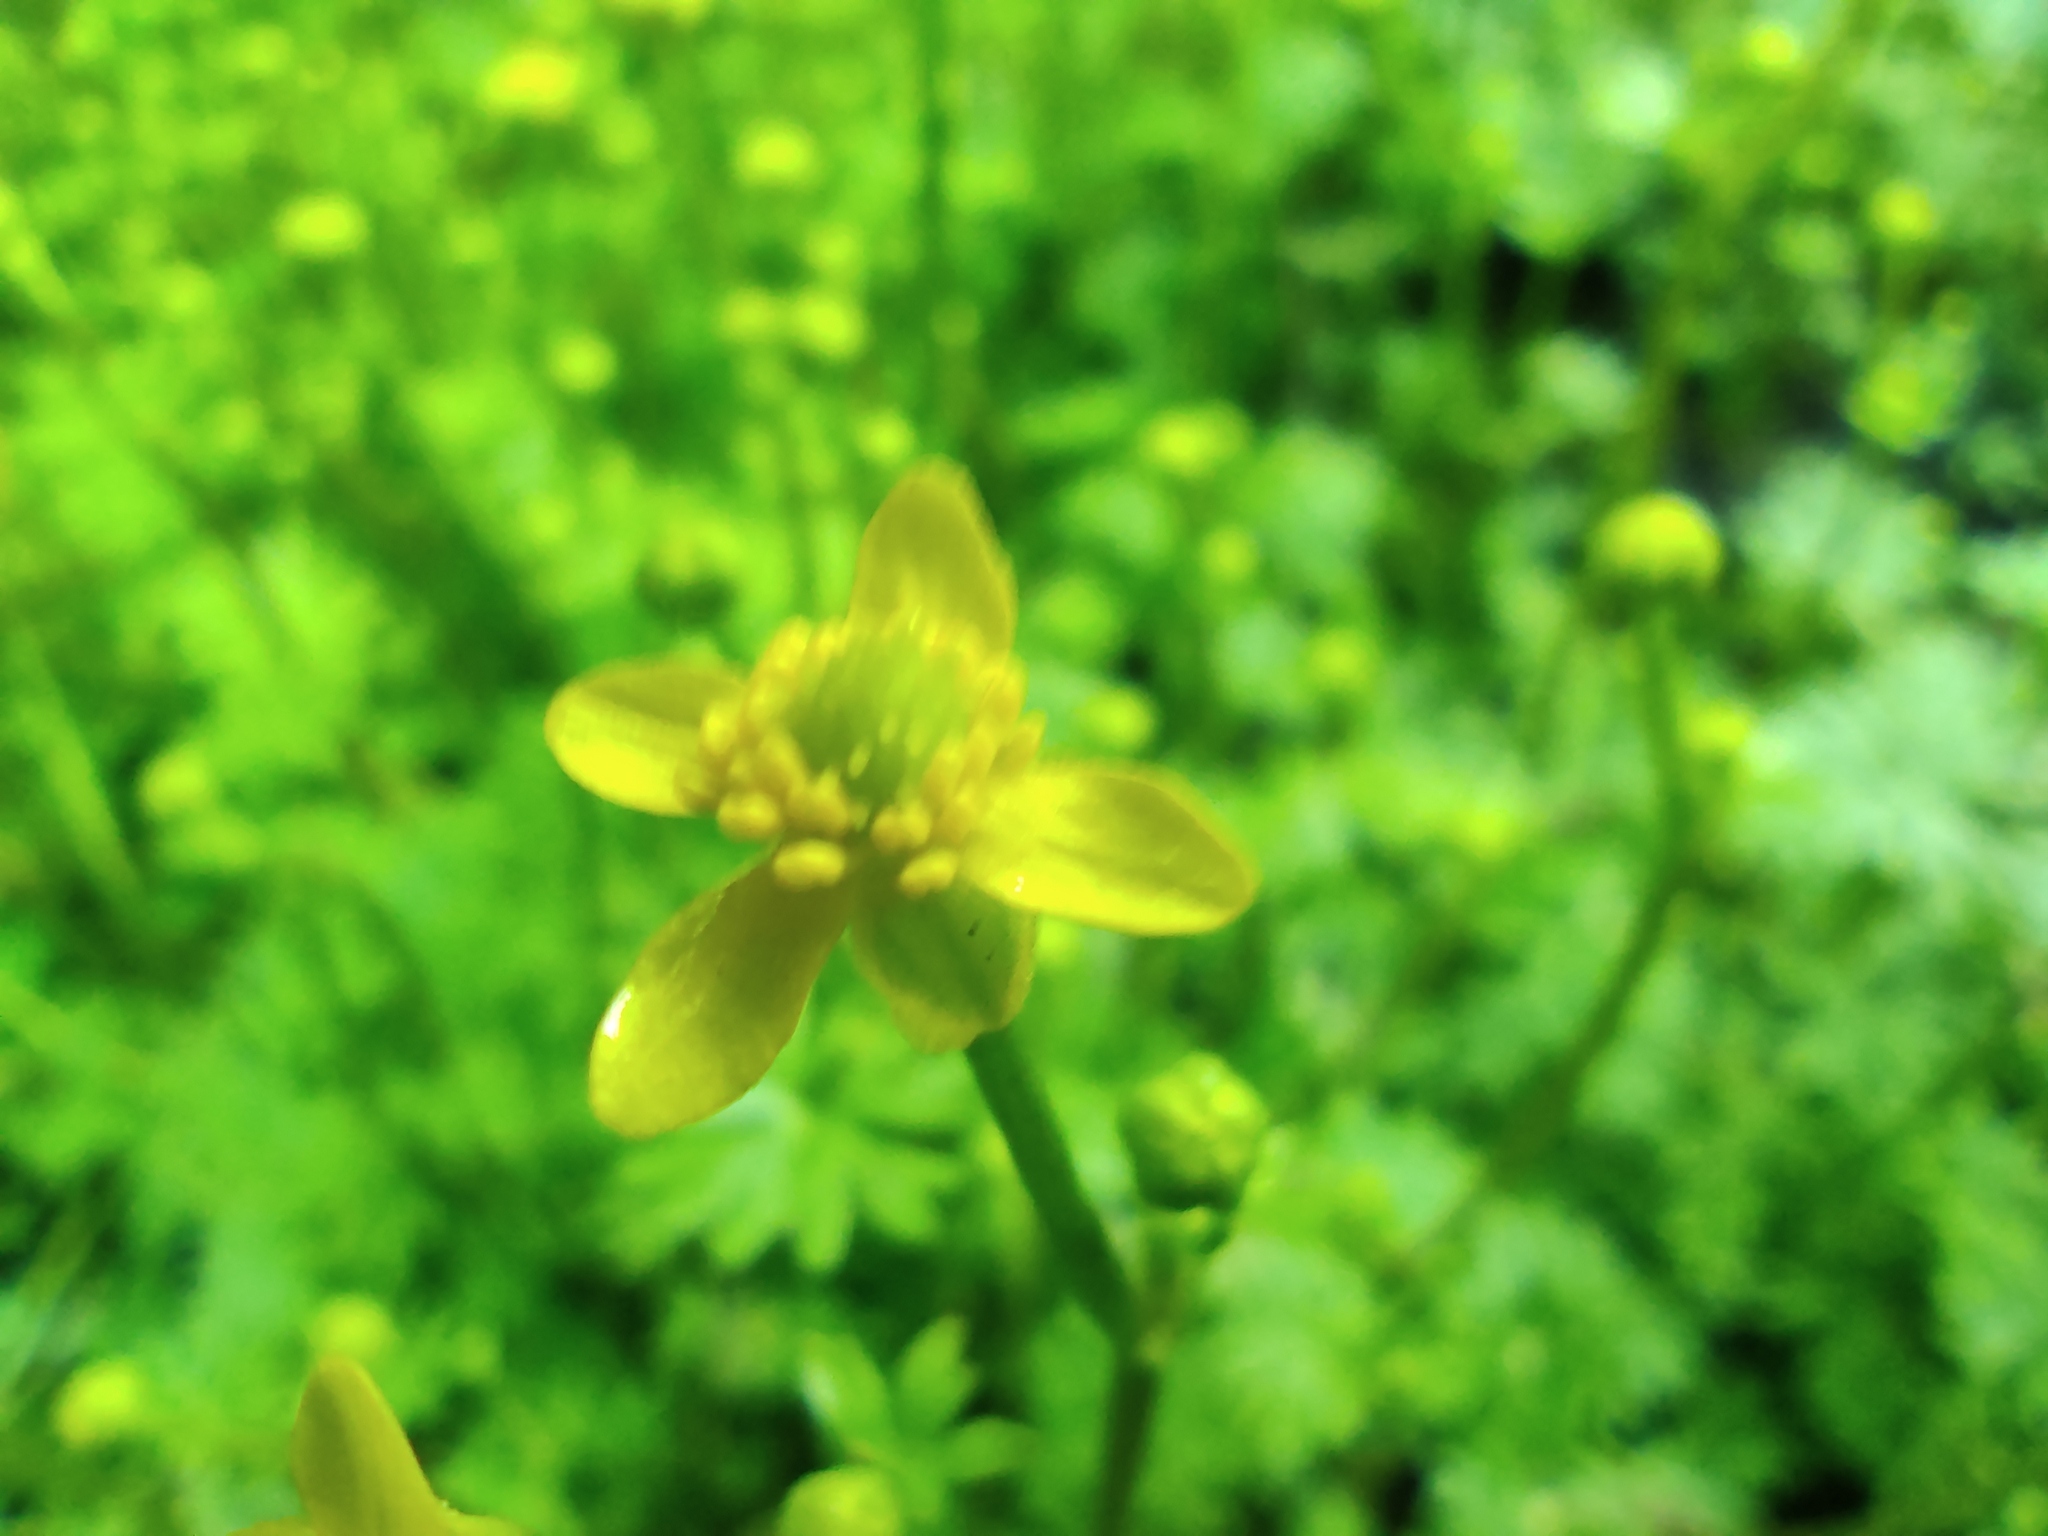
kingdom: Plantae
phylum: Tracheophyta
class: Magnoliopsida
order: Ranunculales
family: Ranunculaceae
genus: Ranunculus
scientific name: Ranunculus gmelinii
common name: Gmelin's buttercup
